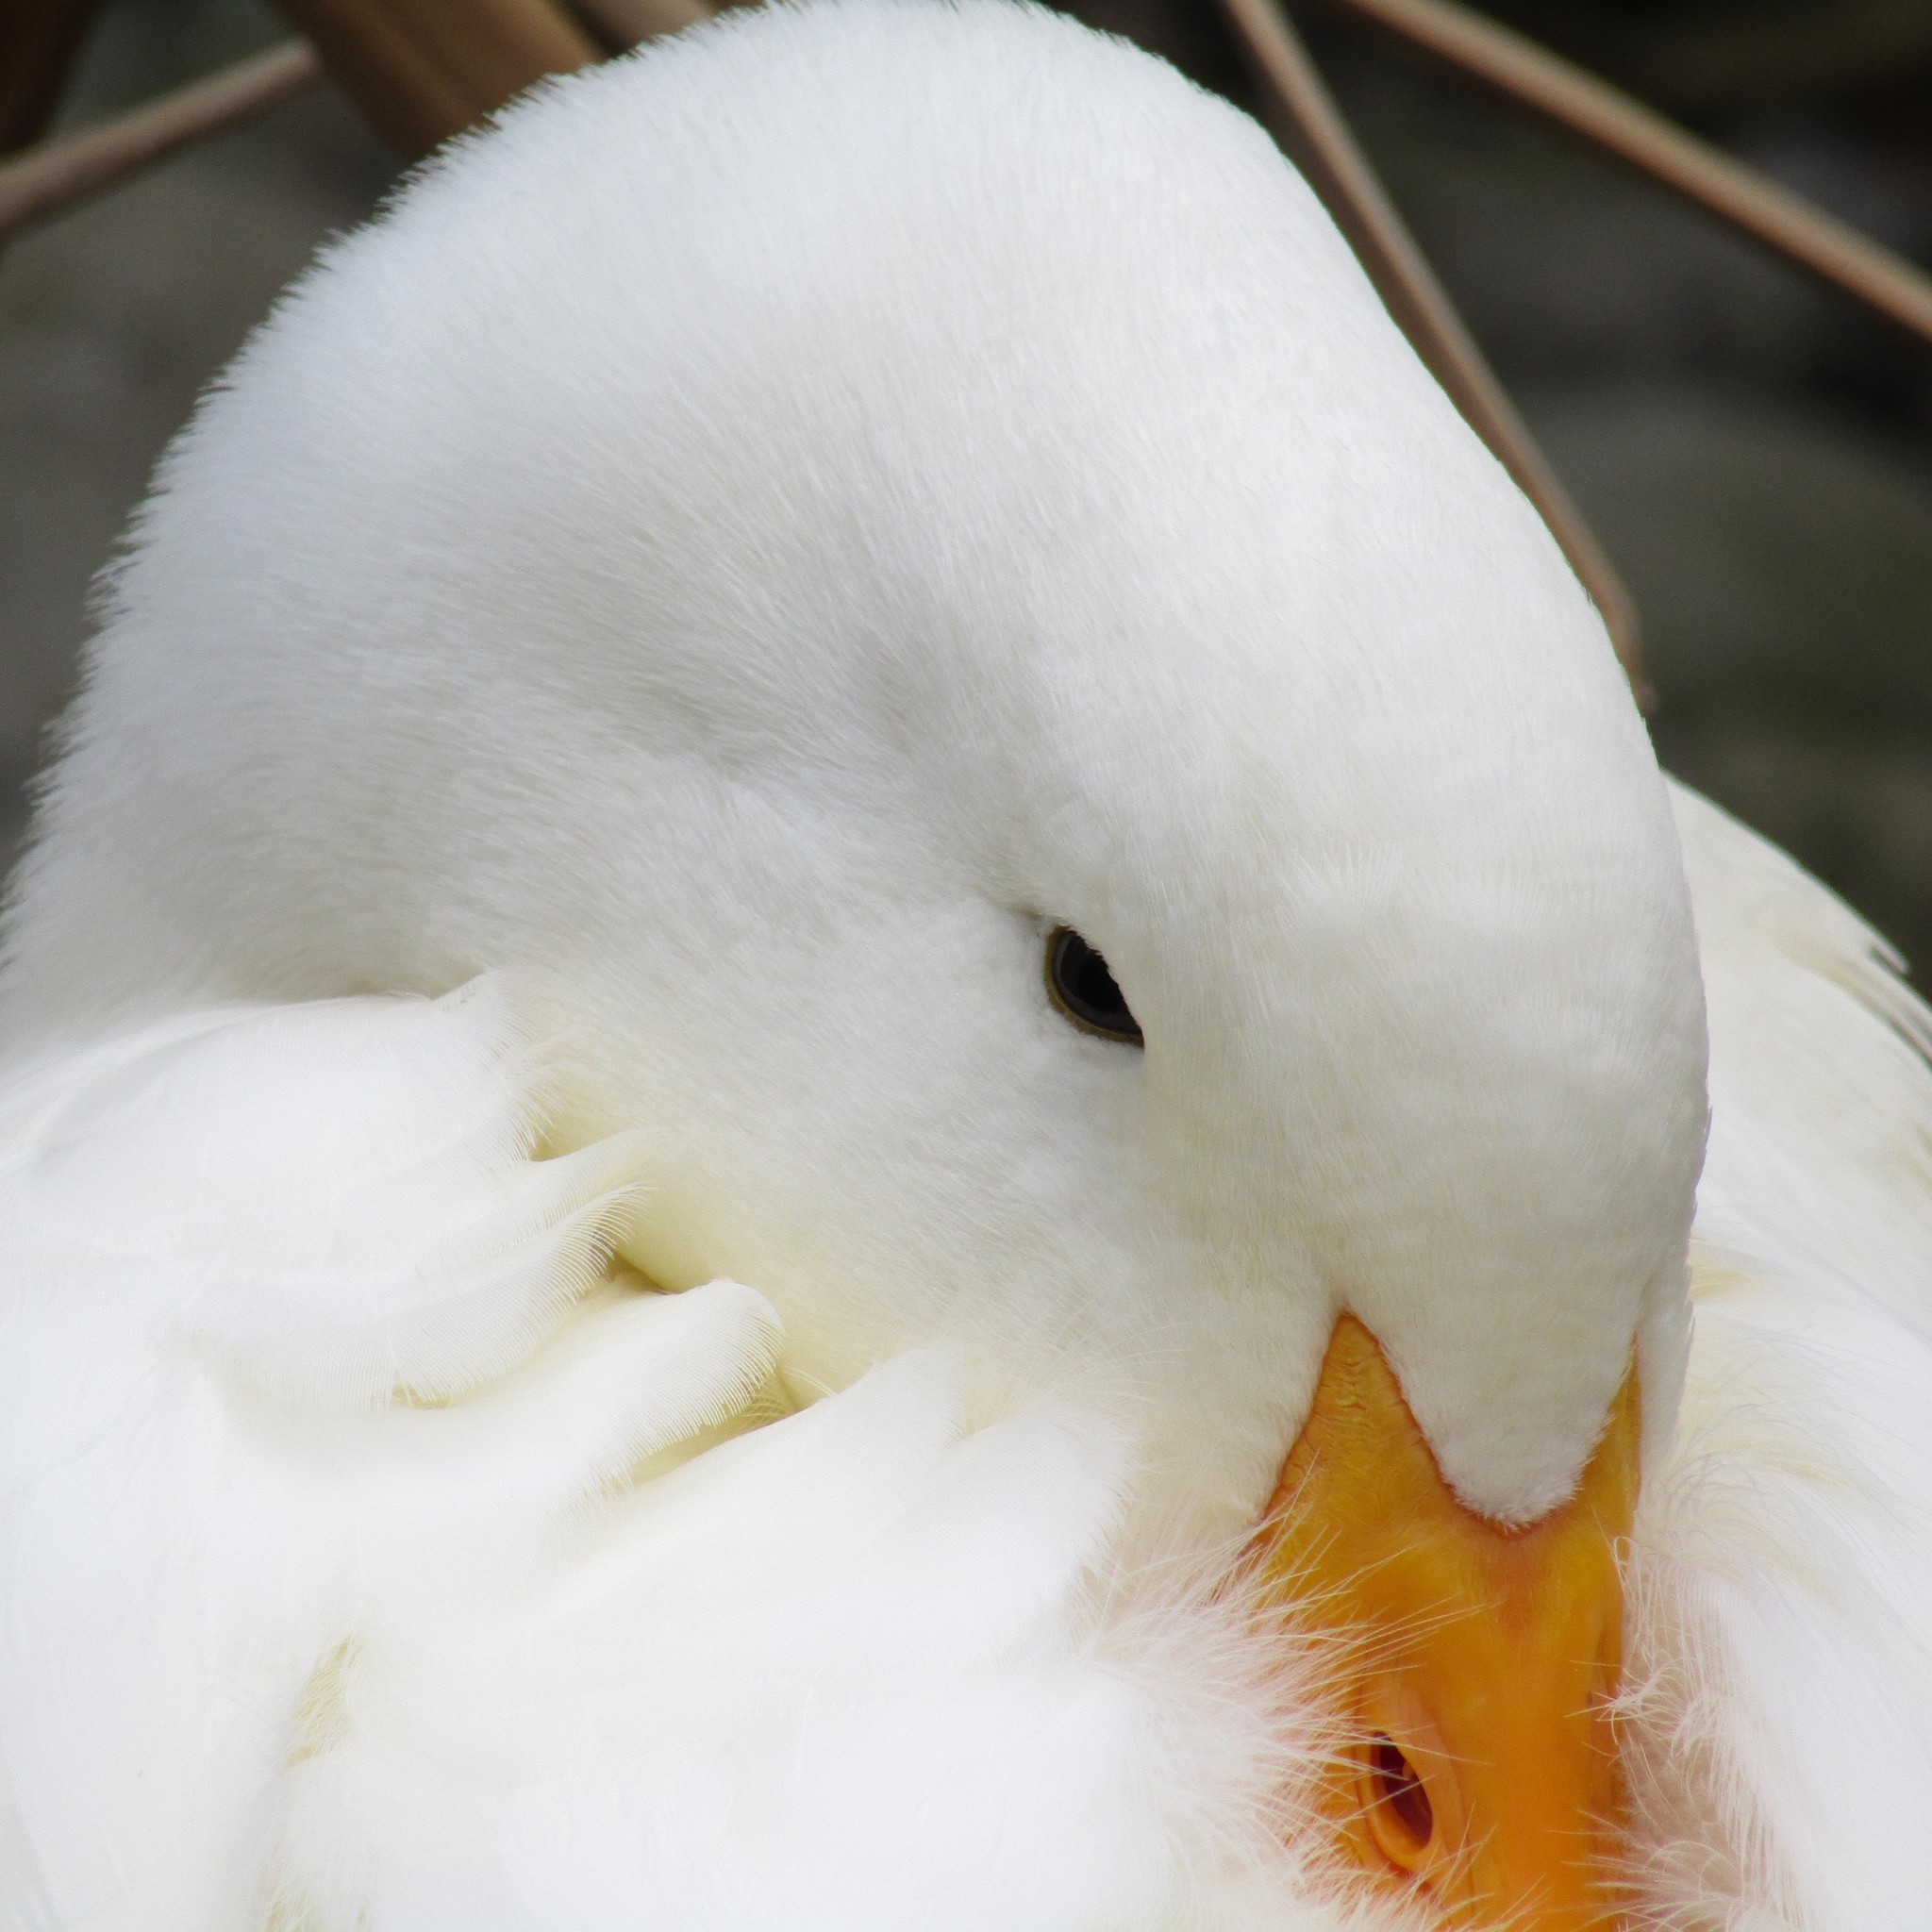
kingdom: Animalia
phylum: Chordata
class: Aves
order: Anseriformes
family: Anatidae
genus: Anas
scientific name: Anas platyrhynchos
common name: Mallard
